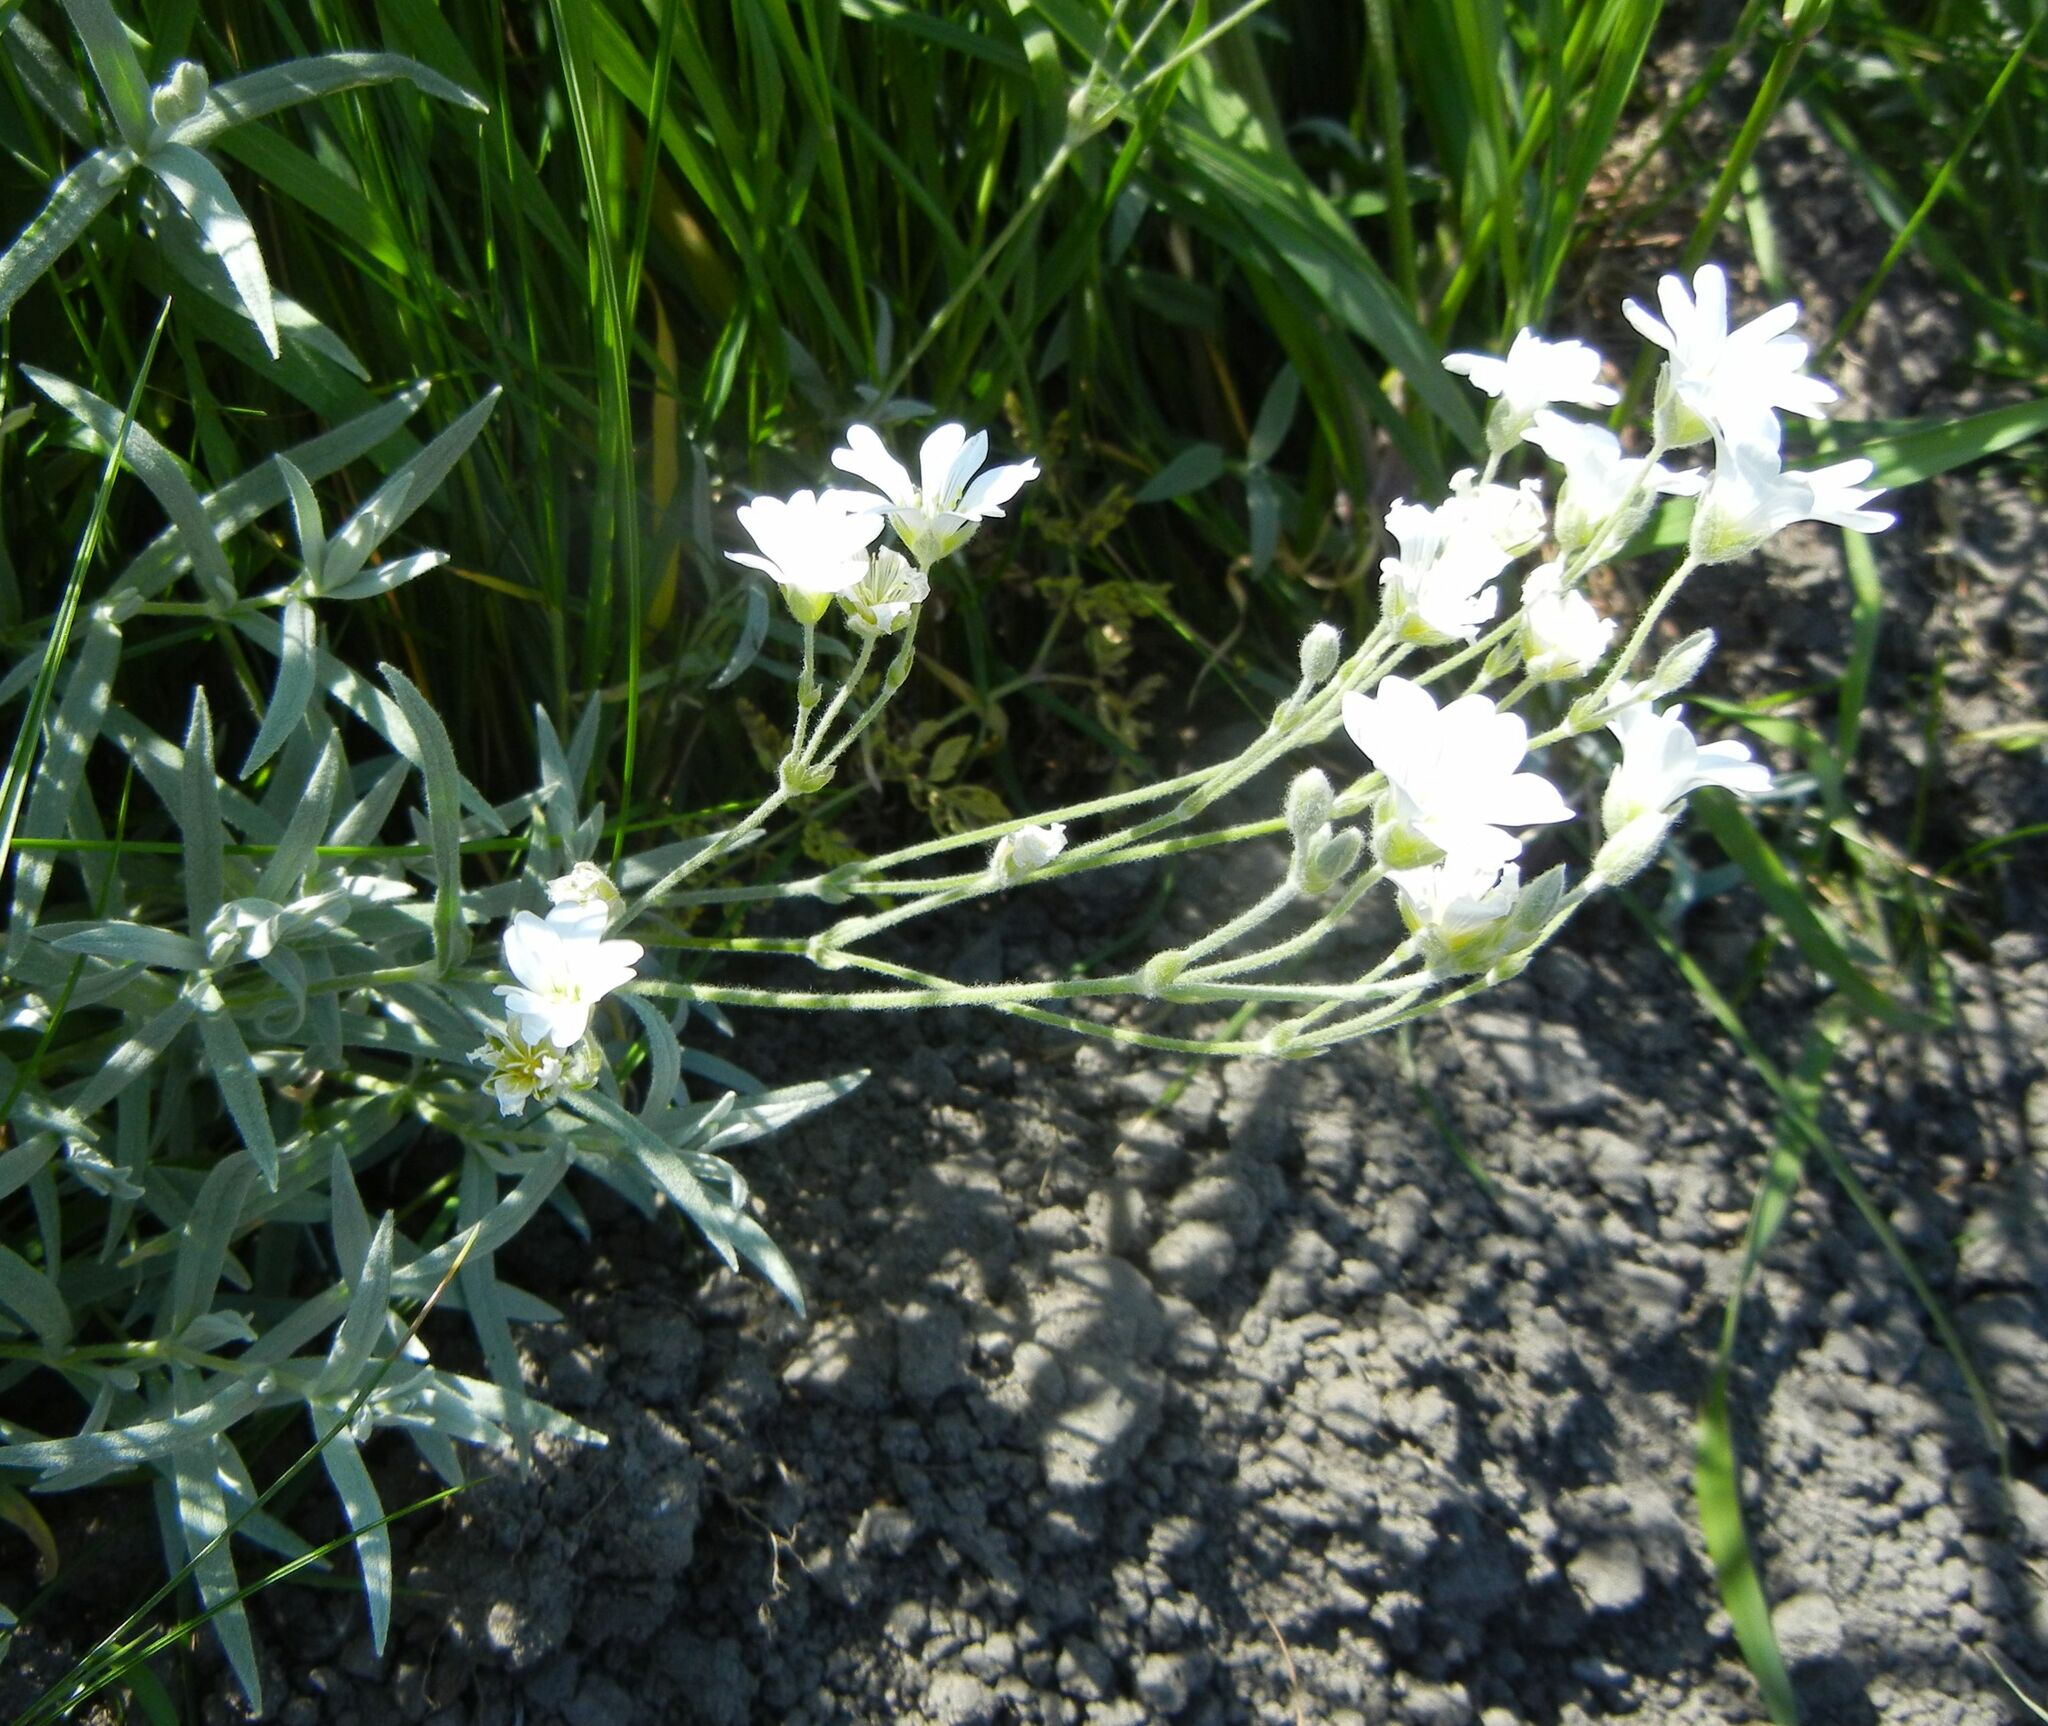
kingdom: Plantae
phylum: Tracheophyta
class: Magnoliopsida
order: Caryophyllales
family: Caryophyllaceae
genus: Cerastium
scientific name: Cerastium tomentosum
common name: Snow-in-summer
